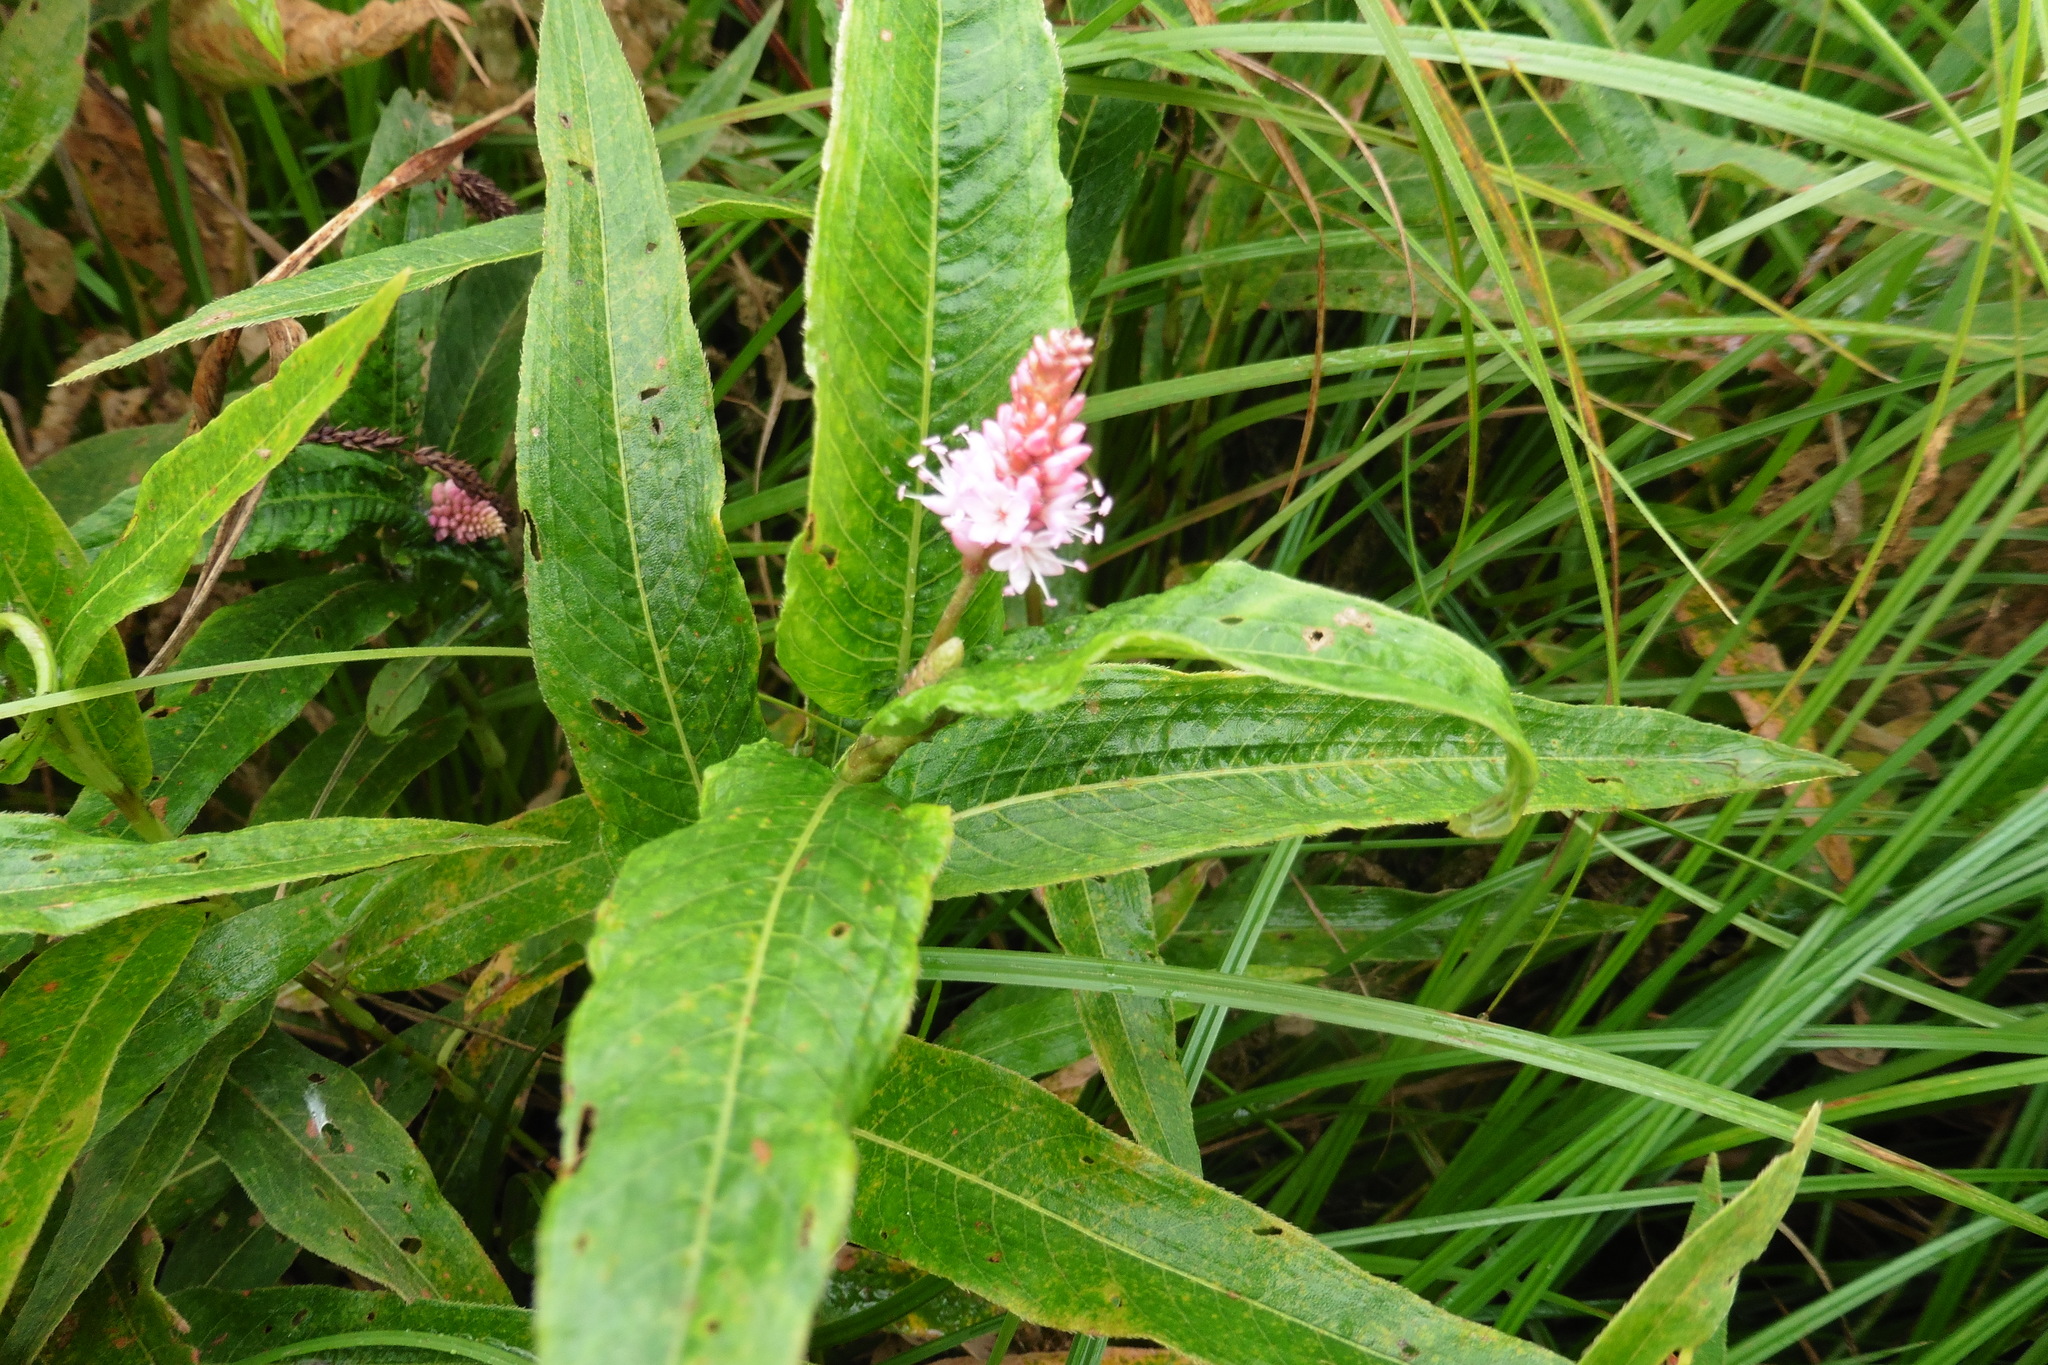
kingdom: Plantae
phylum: Tracheophyta
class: Magnoliopsida
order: Caryophyllales
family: Polygonaceae
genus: Persicaria
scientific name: Persicaria amphibia
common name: Amphibious bistort
